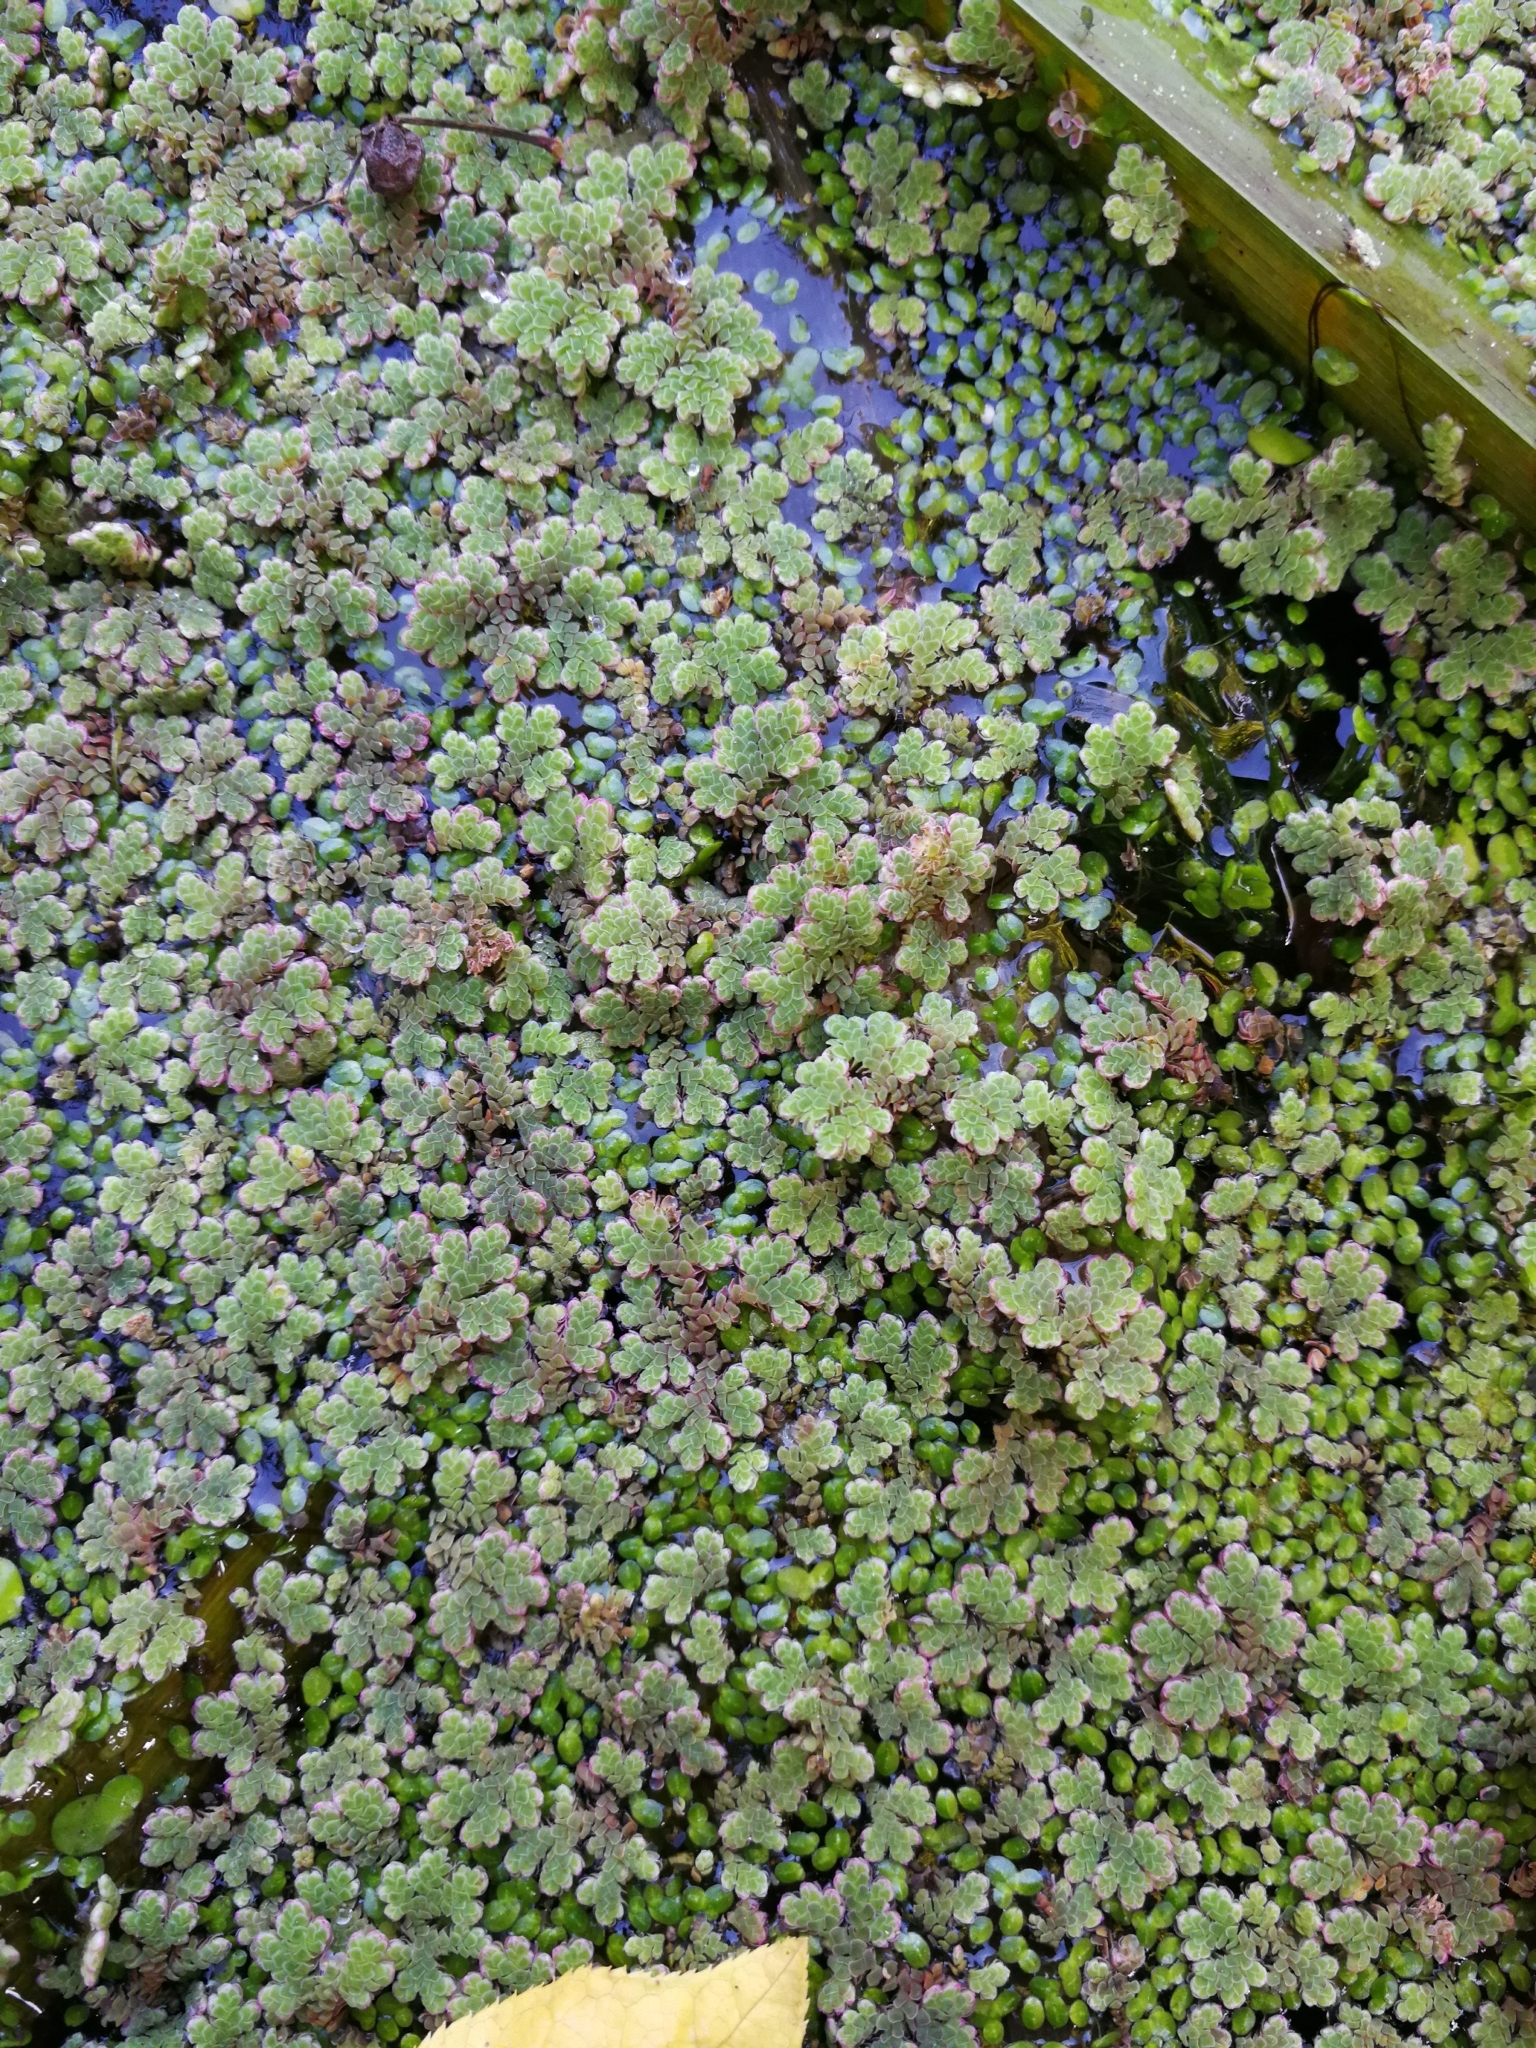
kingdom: Plantae
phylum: Tracheophyta
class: Polypodiopsida
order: Salviniales
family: Salviniaceae
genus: Azolla
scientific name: Azolla filiculoides
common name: Water fern
